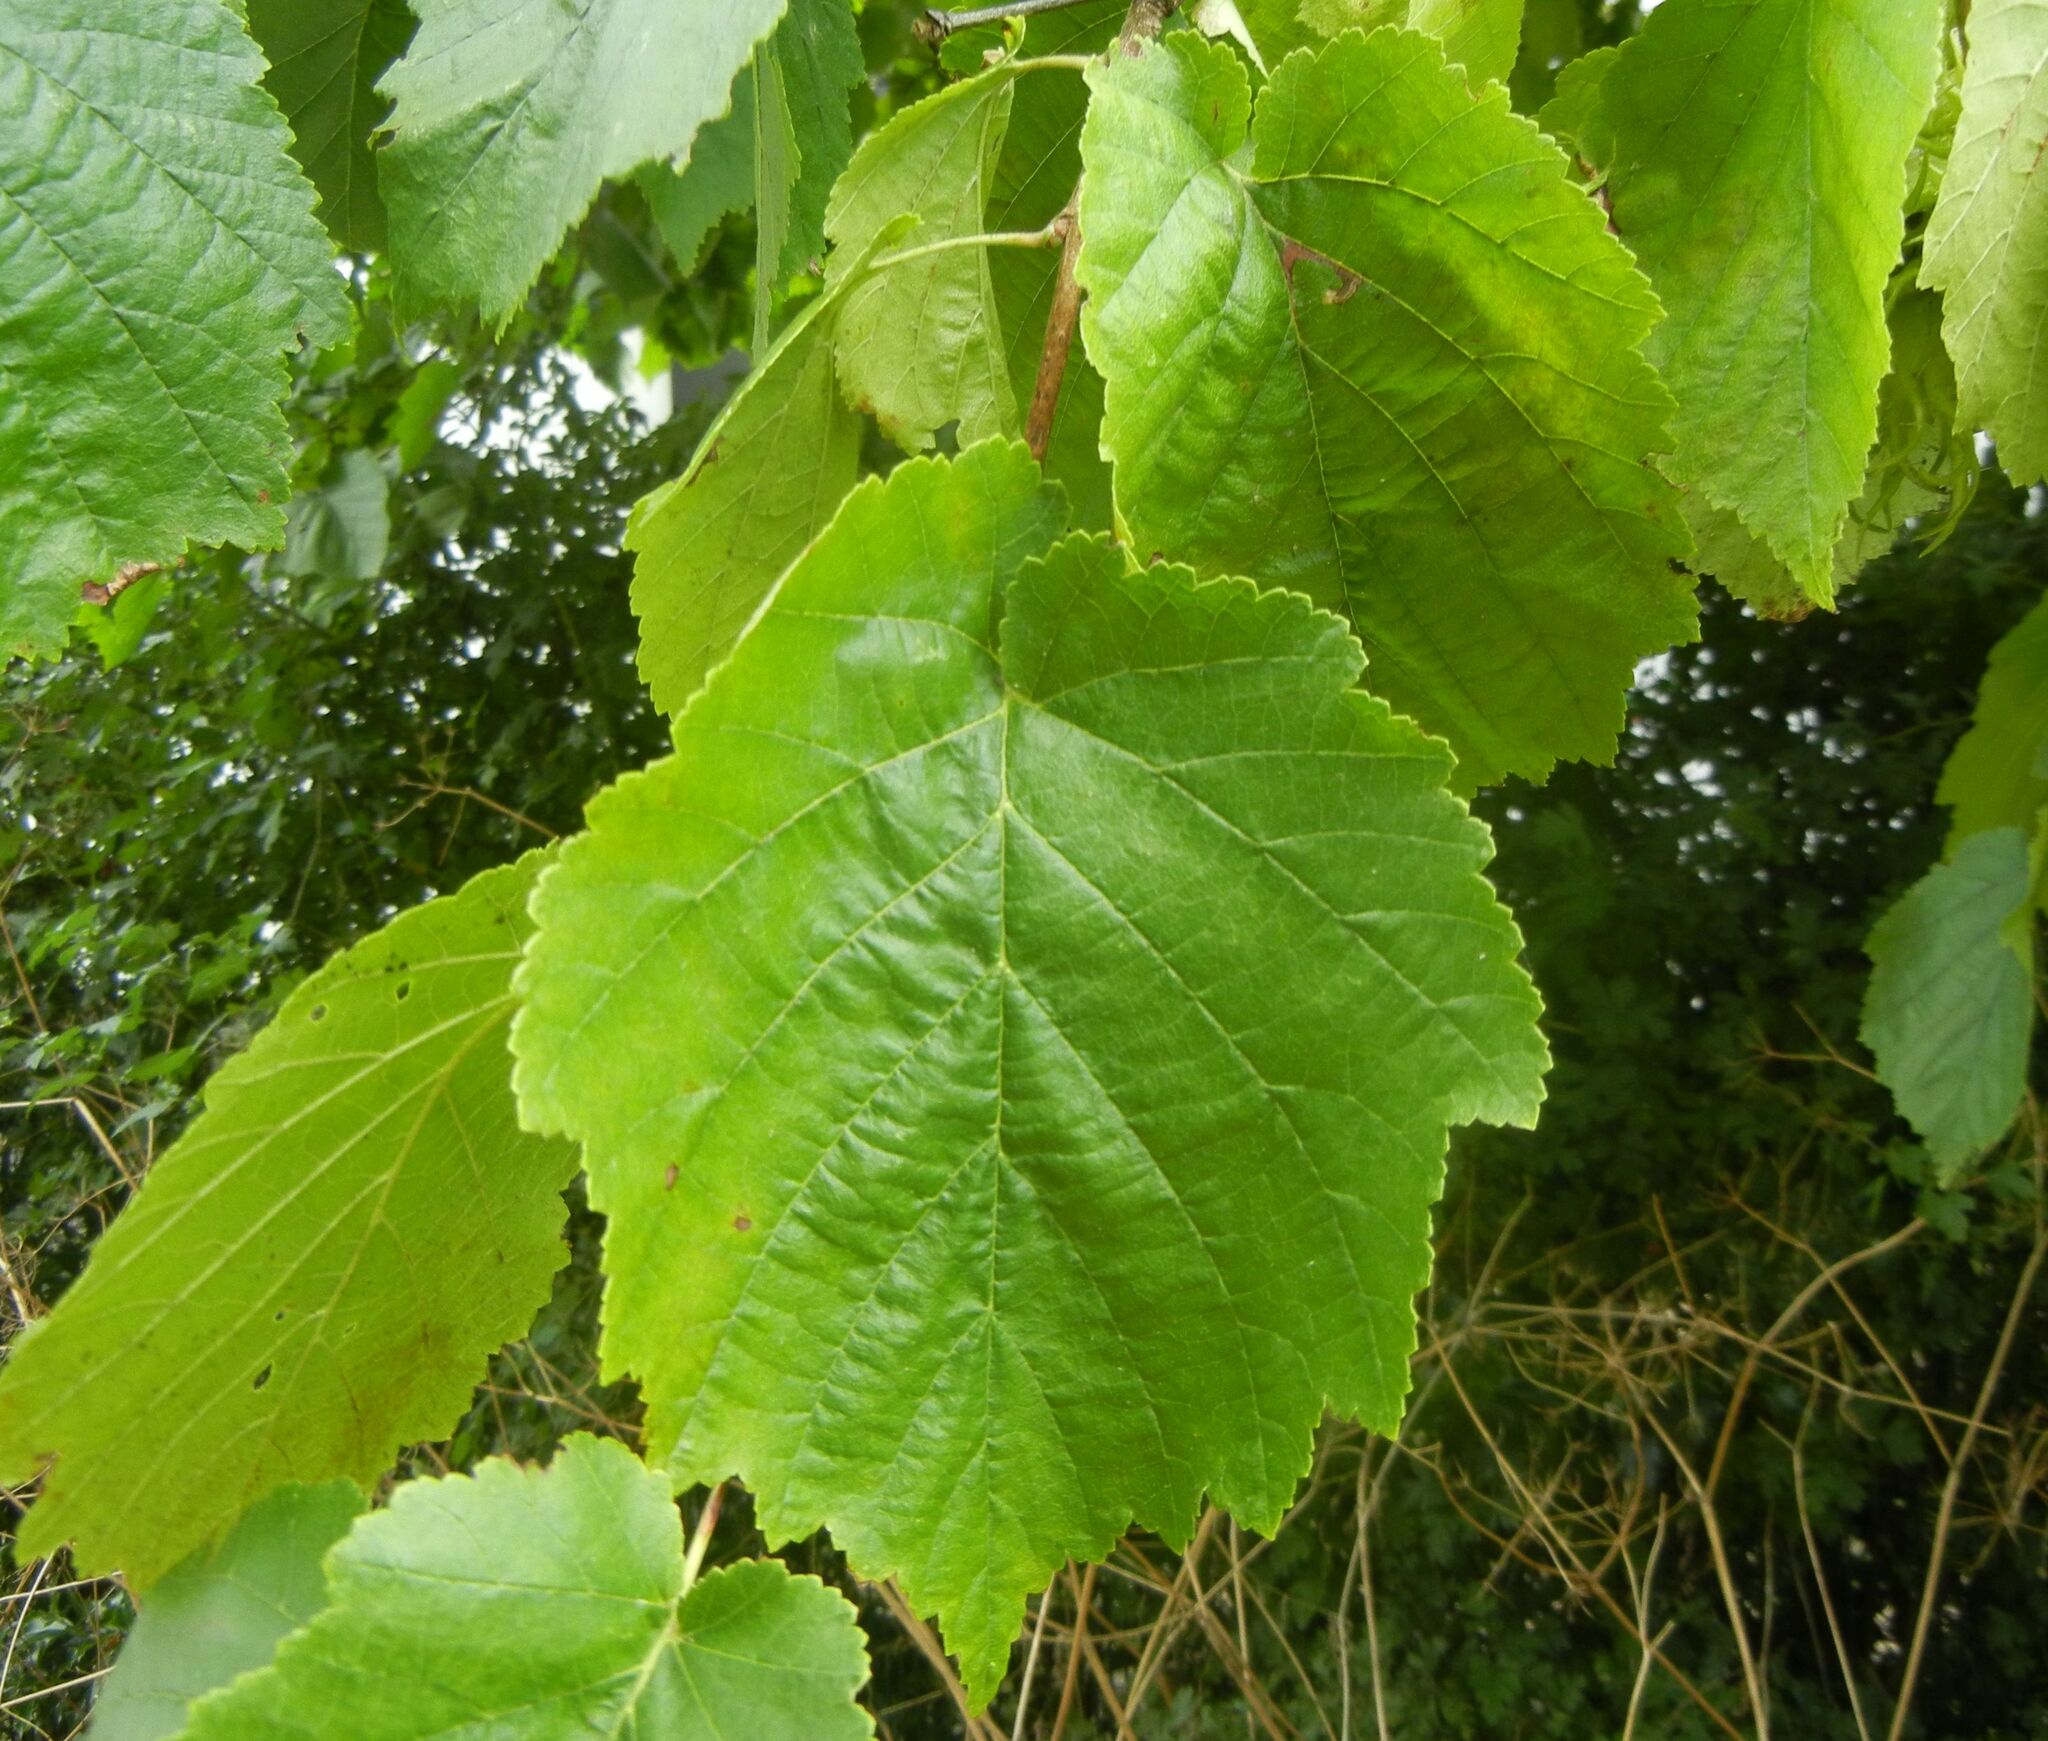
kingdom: Plantae
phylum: Tracheophyta
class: Magnoliopsida
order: Fagales
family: Betulaceae
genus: Corylus
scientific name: Corylus colurna
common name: Turkish hazel
